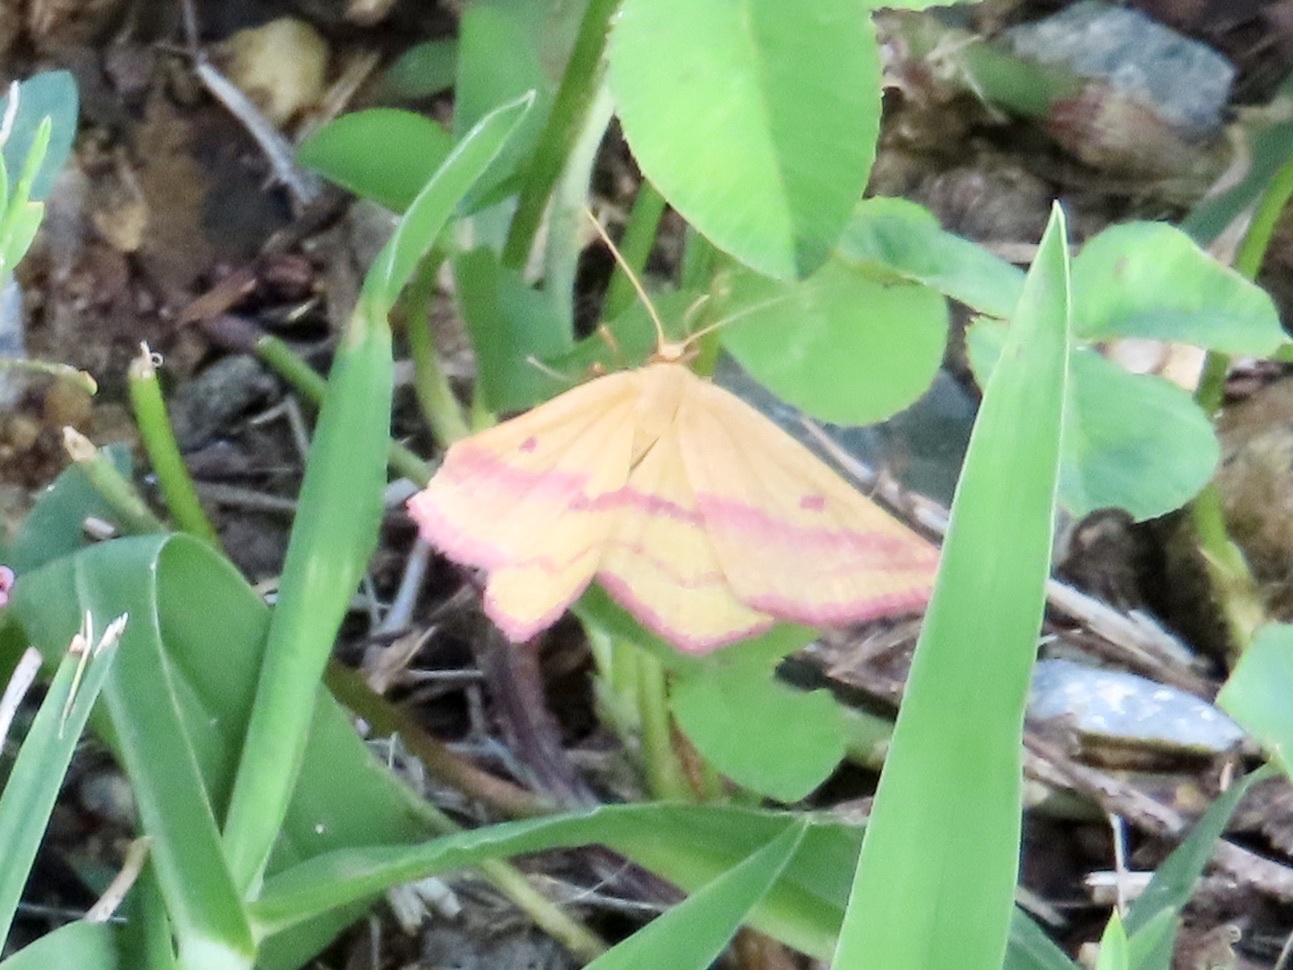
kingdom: Animalia
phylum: Arthropoda
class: Insecta
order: Lepidoptera
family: Geometridae
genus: Haematopis
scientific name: Haematopis grataria
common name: Chickweed geometer
